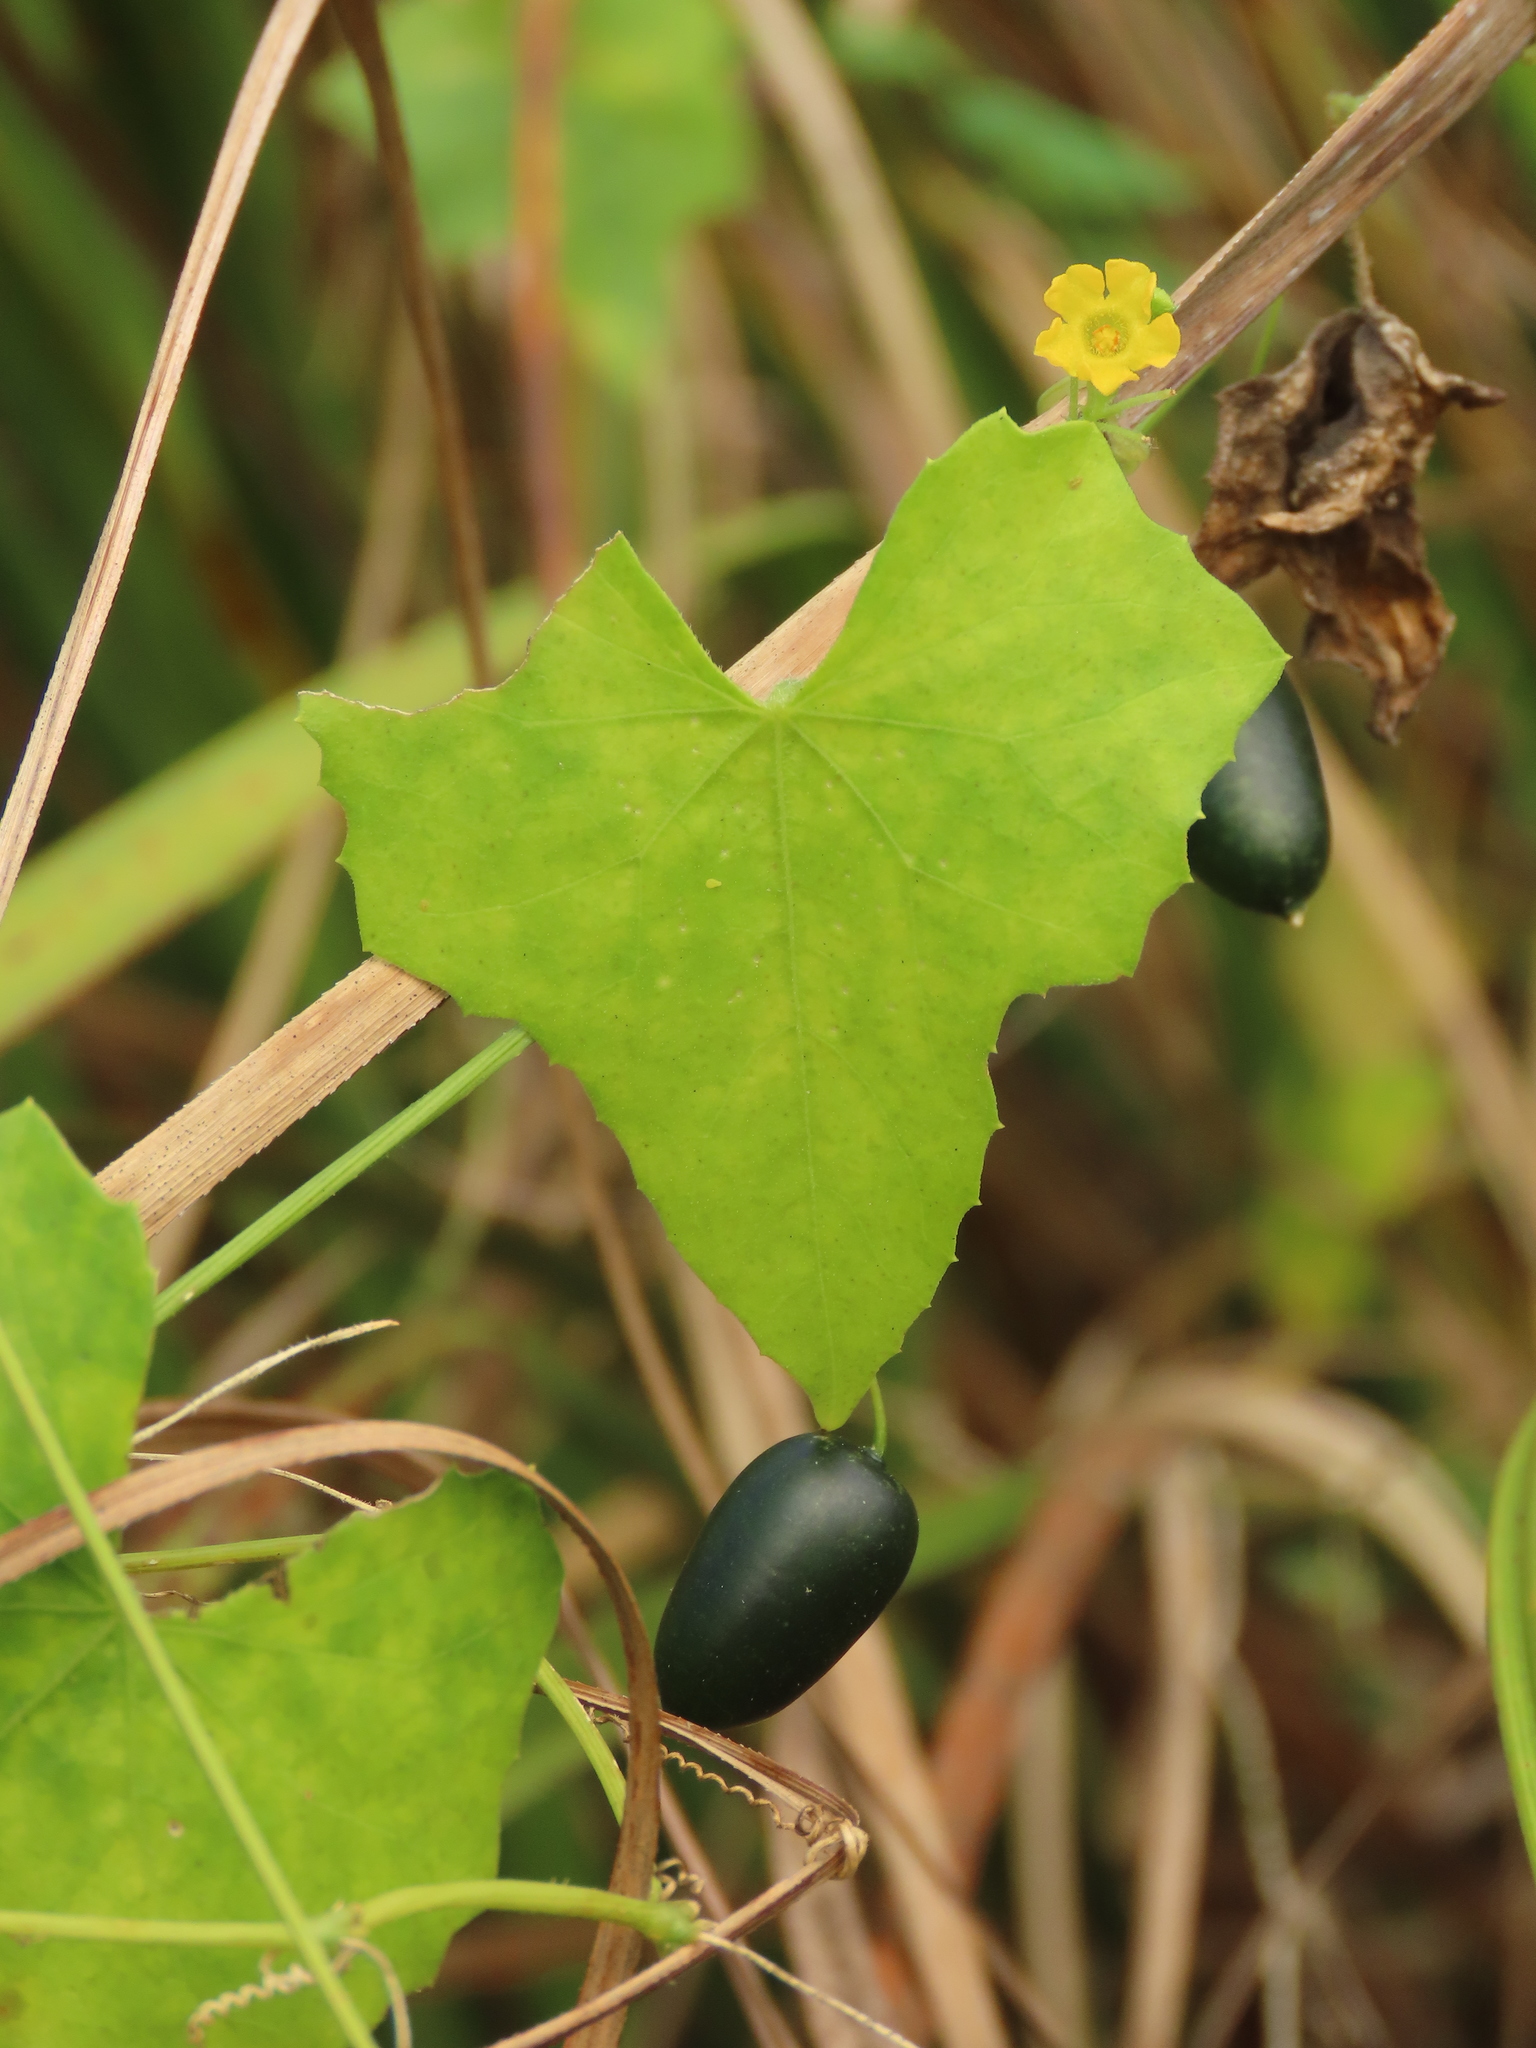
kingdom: Plantae
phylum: Tracheophyta
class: Magnoliopsida
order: Cucurbitales
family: Cucurbitaceae
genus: Melothria
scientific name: Melothria pendula
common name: Creeping-cucumber
